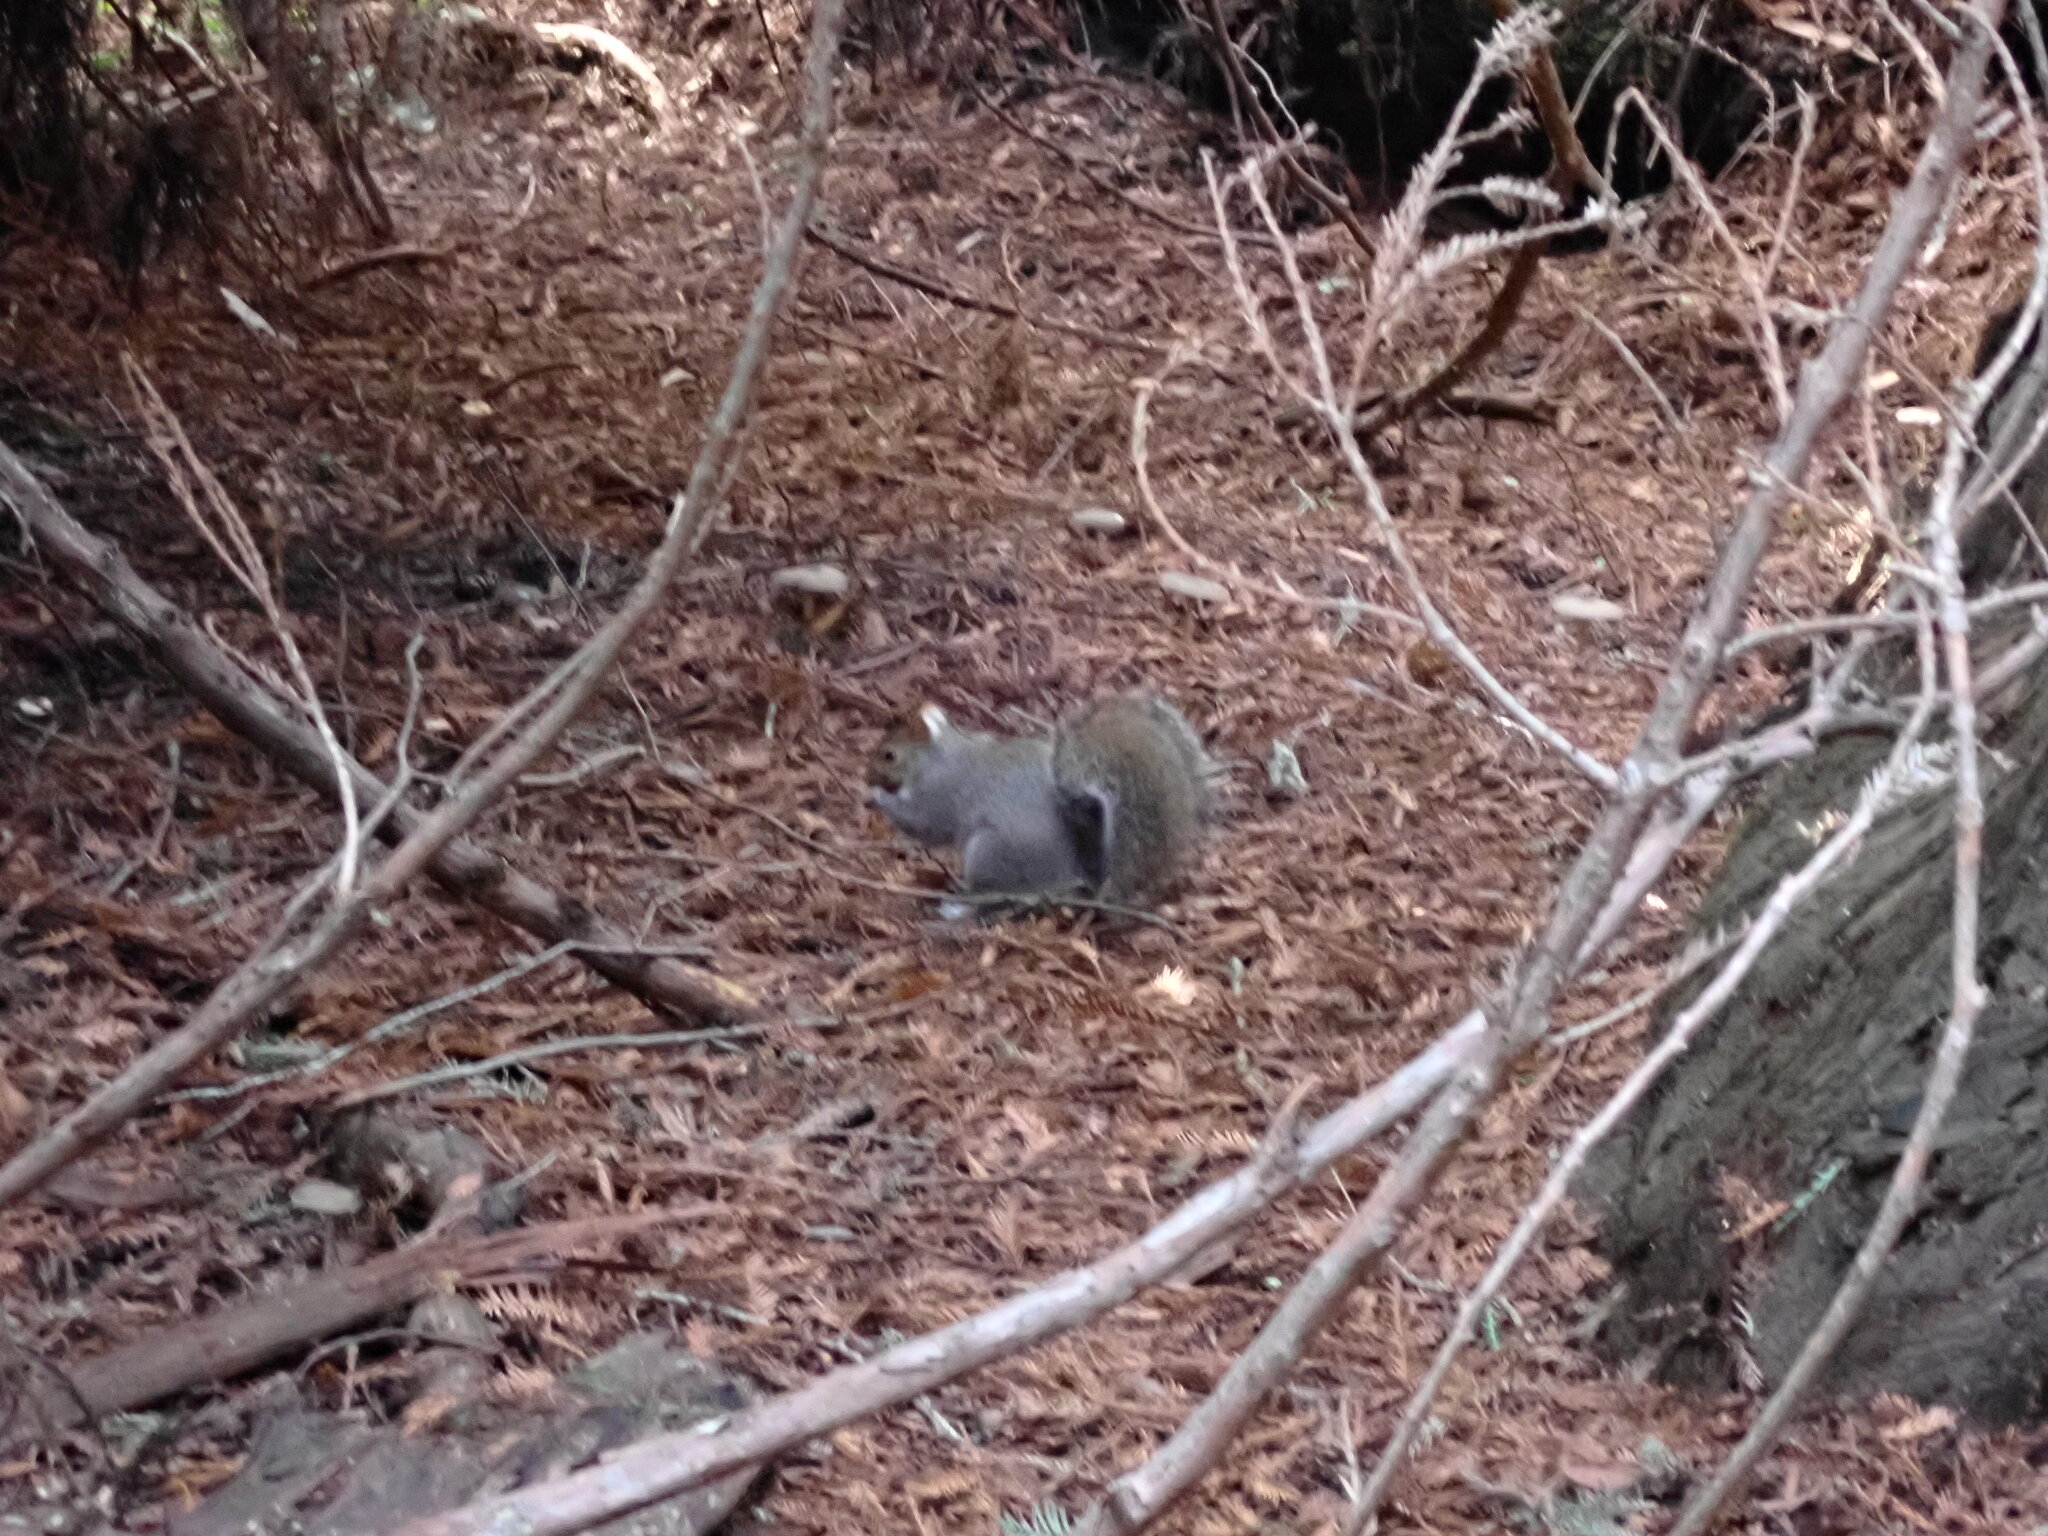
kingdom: Animalia
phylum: Chordata
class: Mammalia
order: Rodentia
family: Sciuridae
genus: Sciurus
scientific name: Sciurus carolinensis
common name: Eastern gray squirrel
